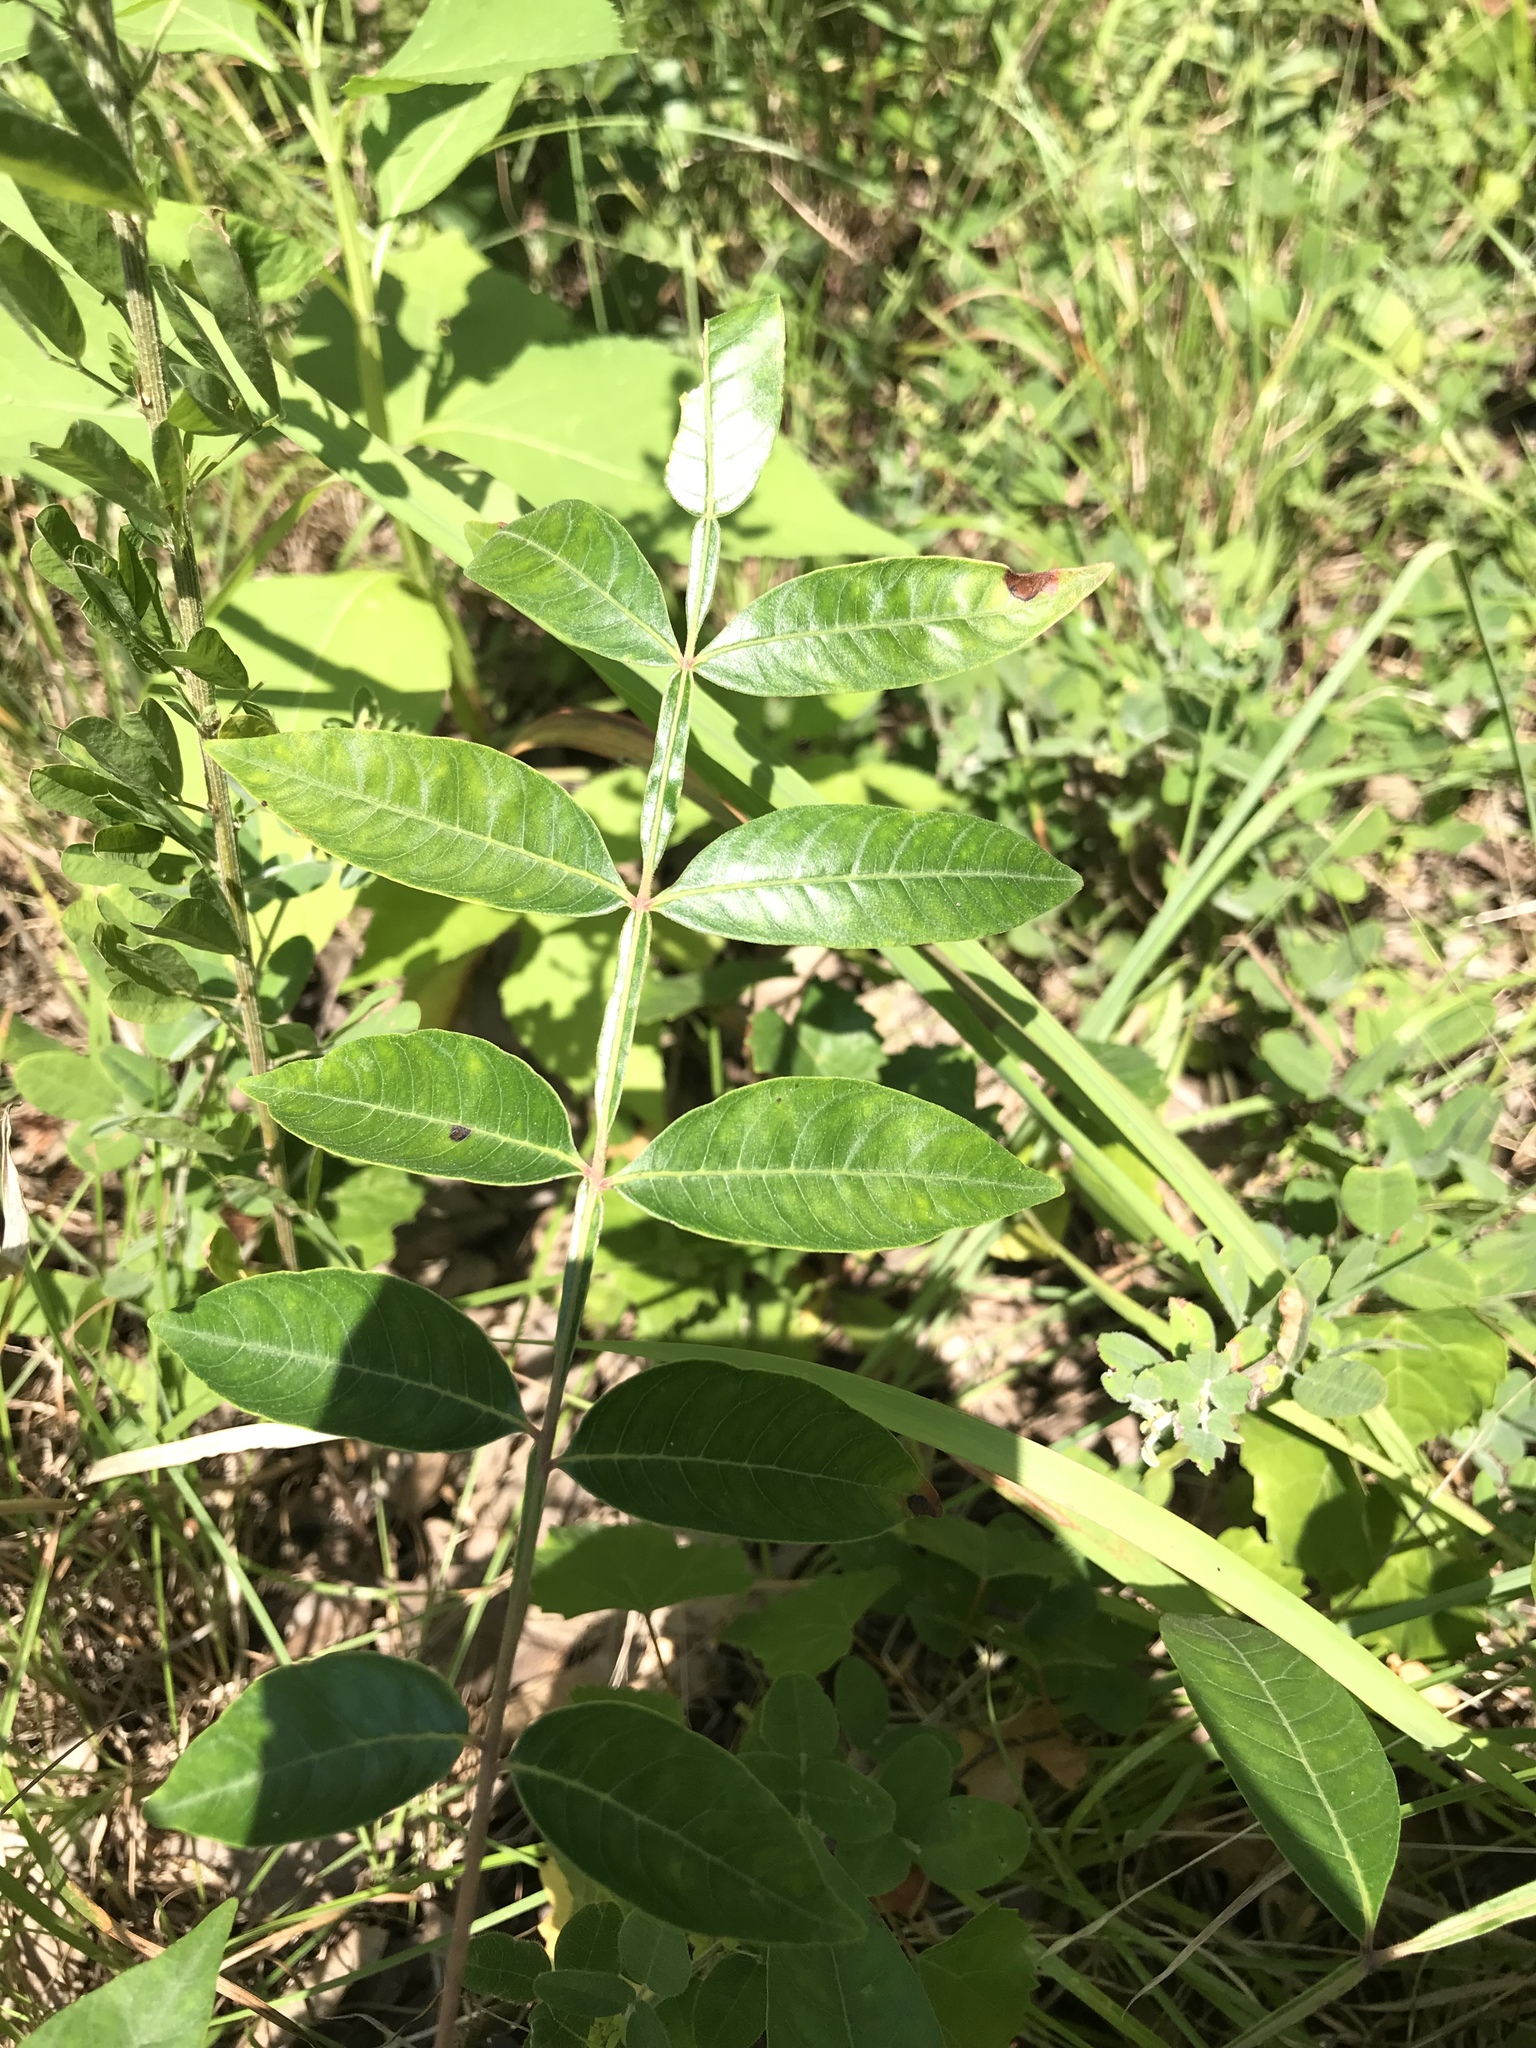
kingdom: Plantae
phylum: Tracheophyta
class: Magnoliopsida
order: Sapindales
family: Anacardiaceae
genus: Rhus
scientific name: Rhus copallina
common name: Shining sumac
